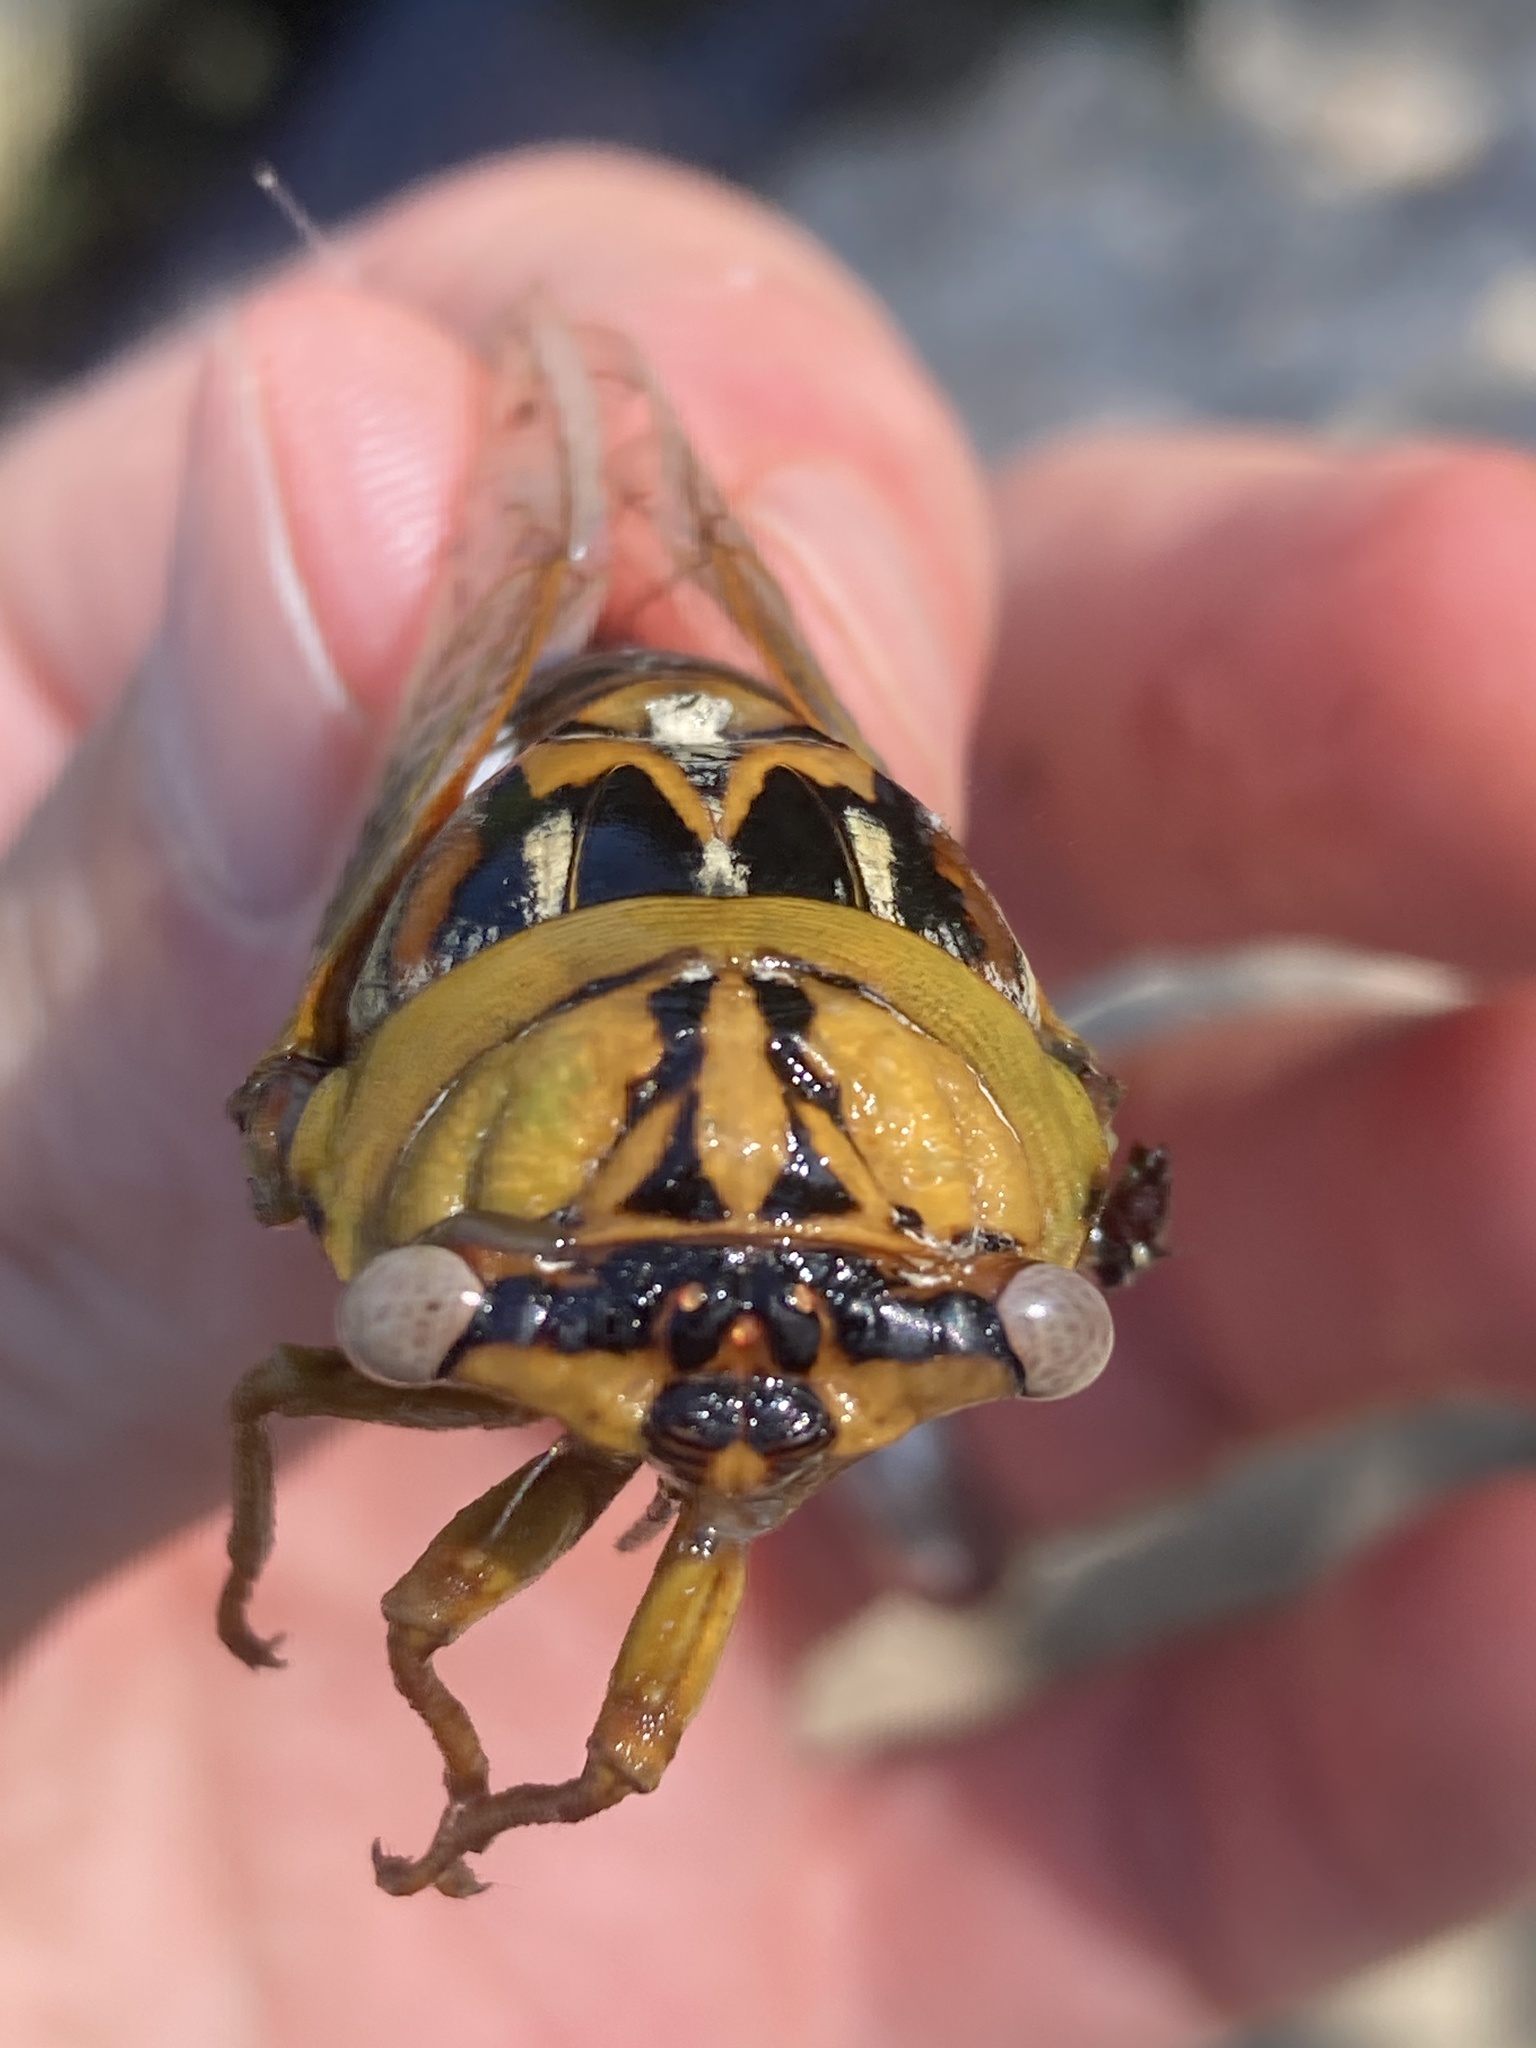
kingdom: Animalia
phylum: Arthropoda
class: Insecta
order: Hemiptera
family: Cicadidae
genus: Megatibicen
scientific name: Megatibicen dealbatus
